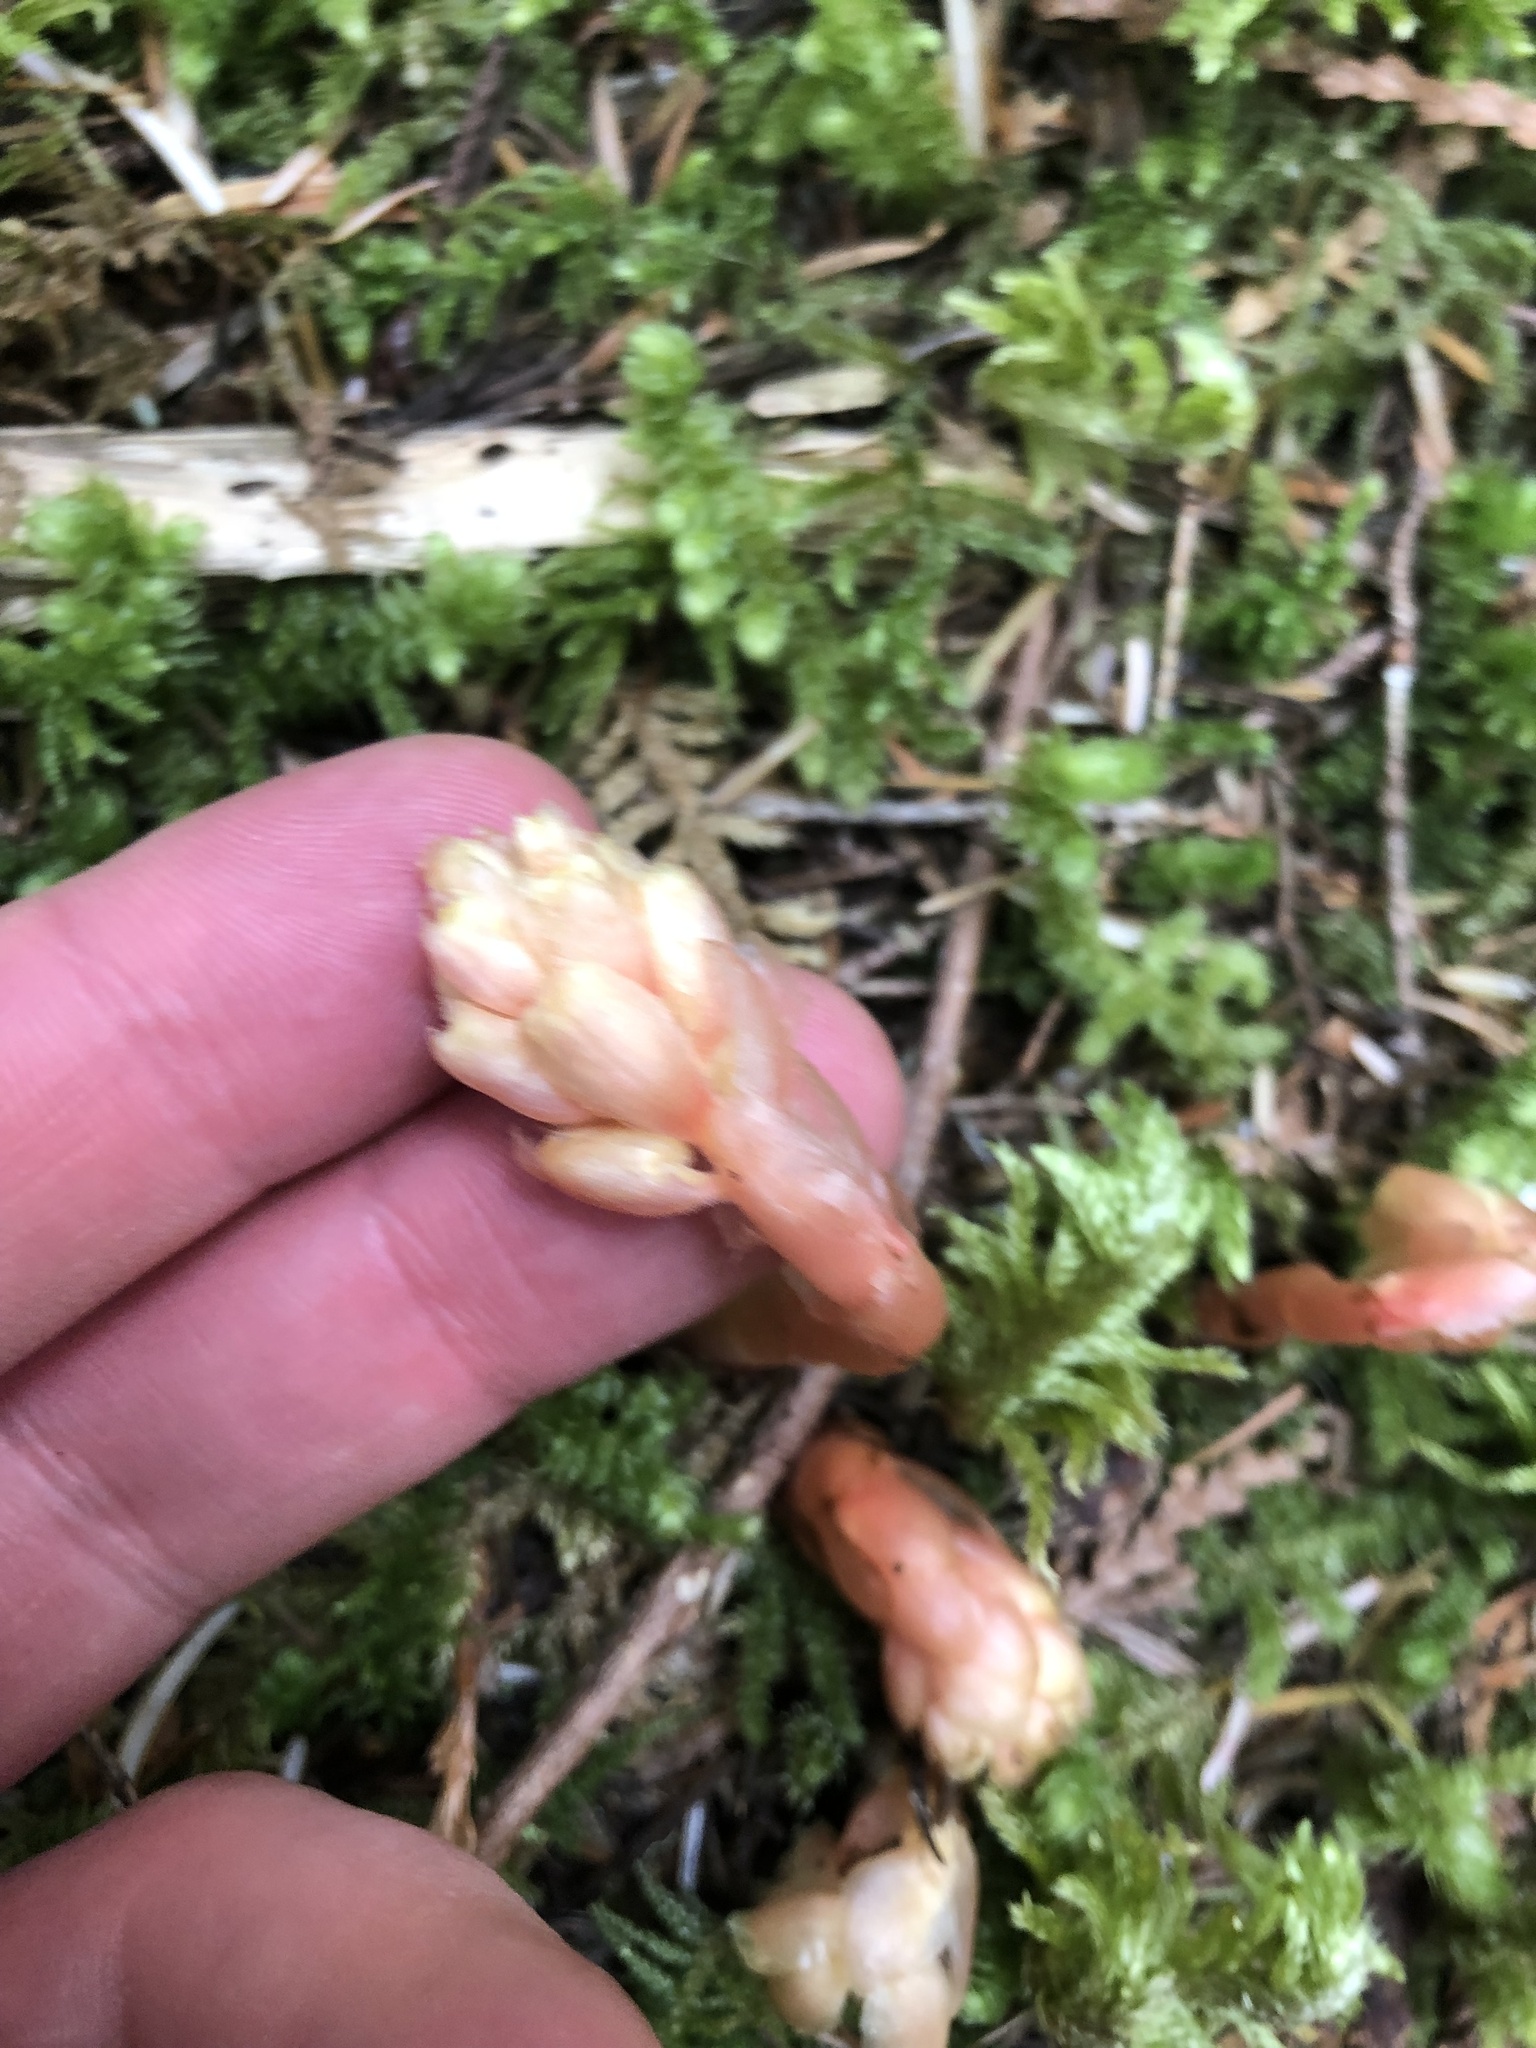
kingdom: Plantae
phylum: Tracheophyta
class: Magnoliopsida
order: Ericales
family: Ericaceae
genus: Hypopitys
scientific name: Hypopitys monotropa
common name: Yellow bird's-nest
